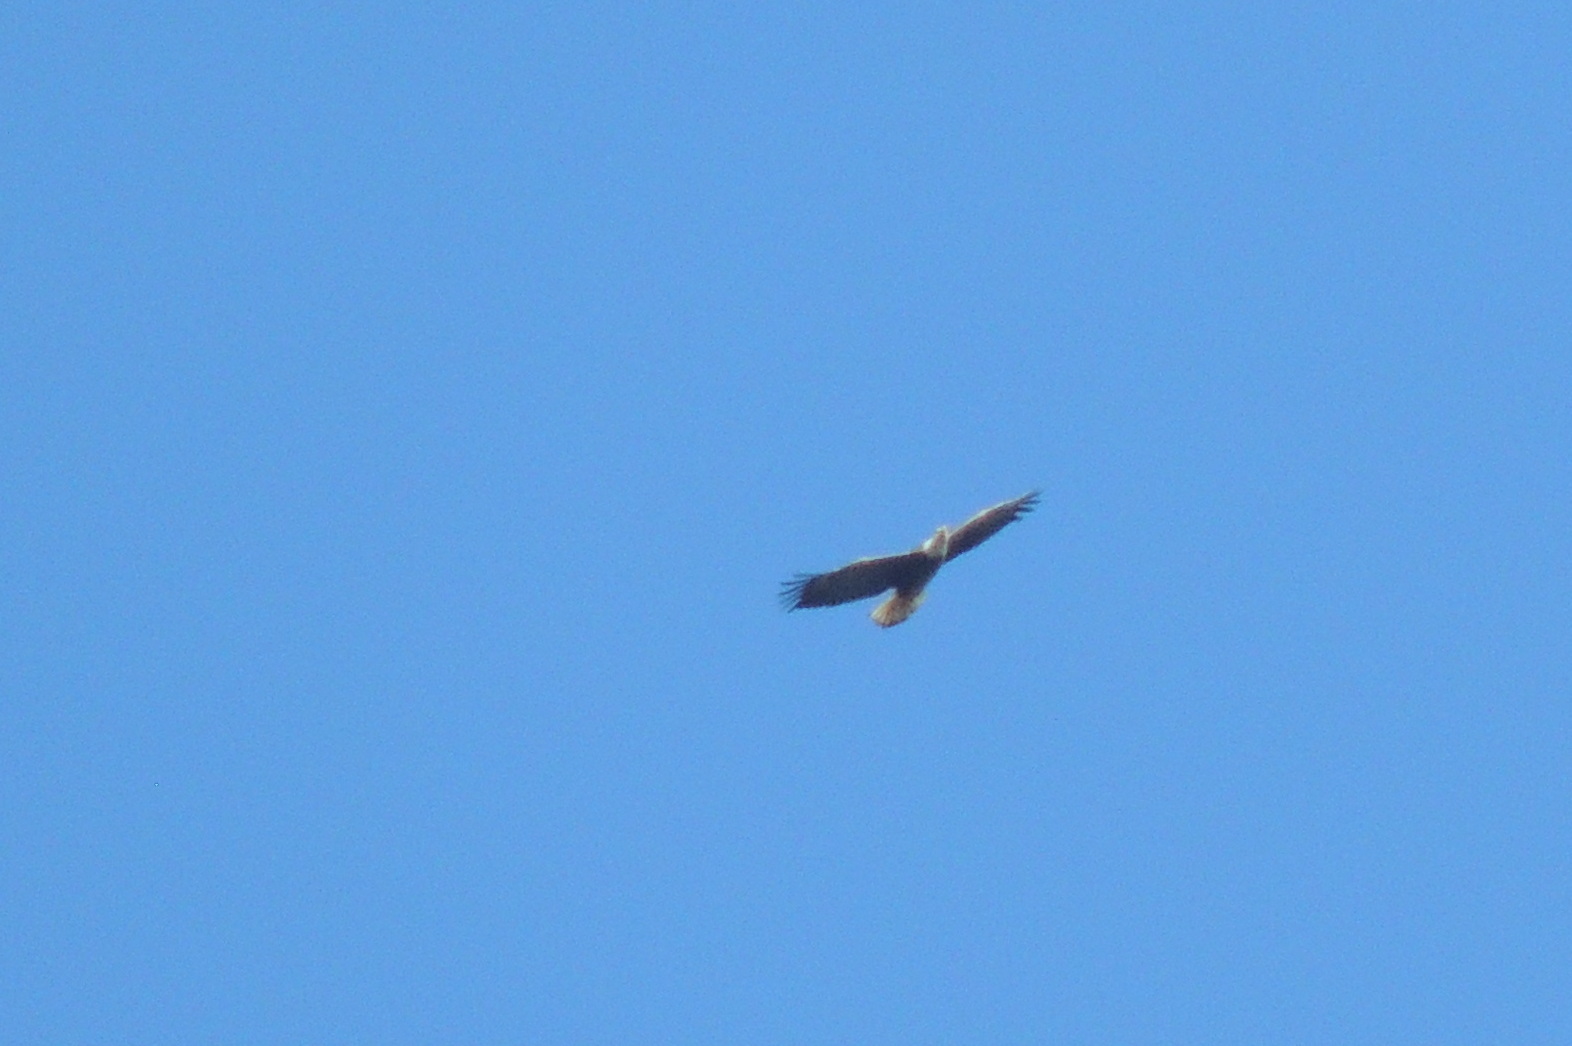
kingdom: Animalia
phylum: Chordata
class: Aves
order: Accipitriformes
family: Accipitridae
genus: Haliaeetus
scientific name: Haliaeetus leucocephalus
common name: Bald eagle
